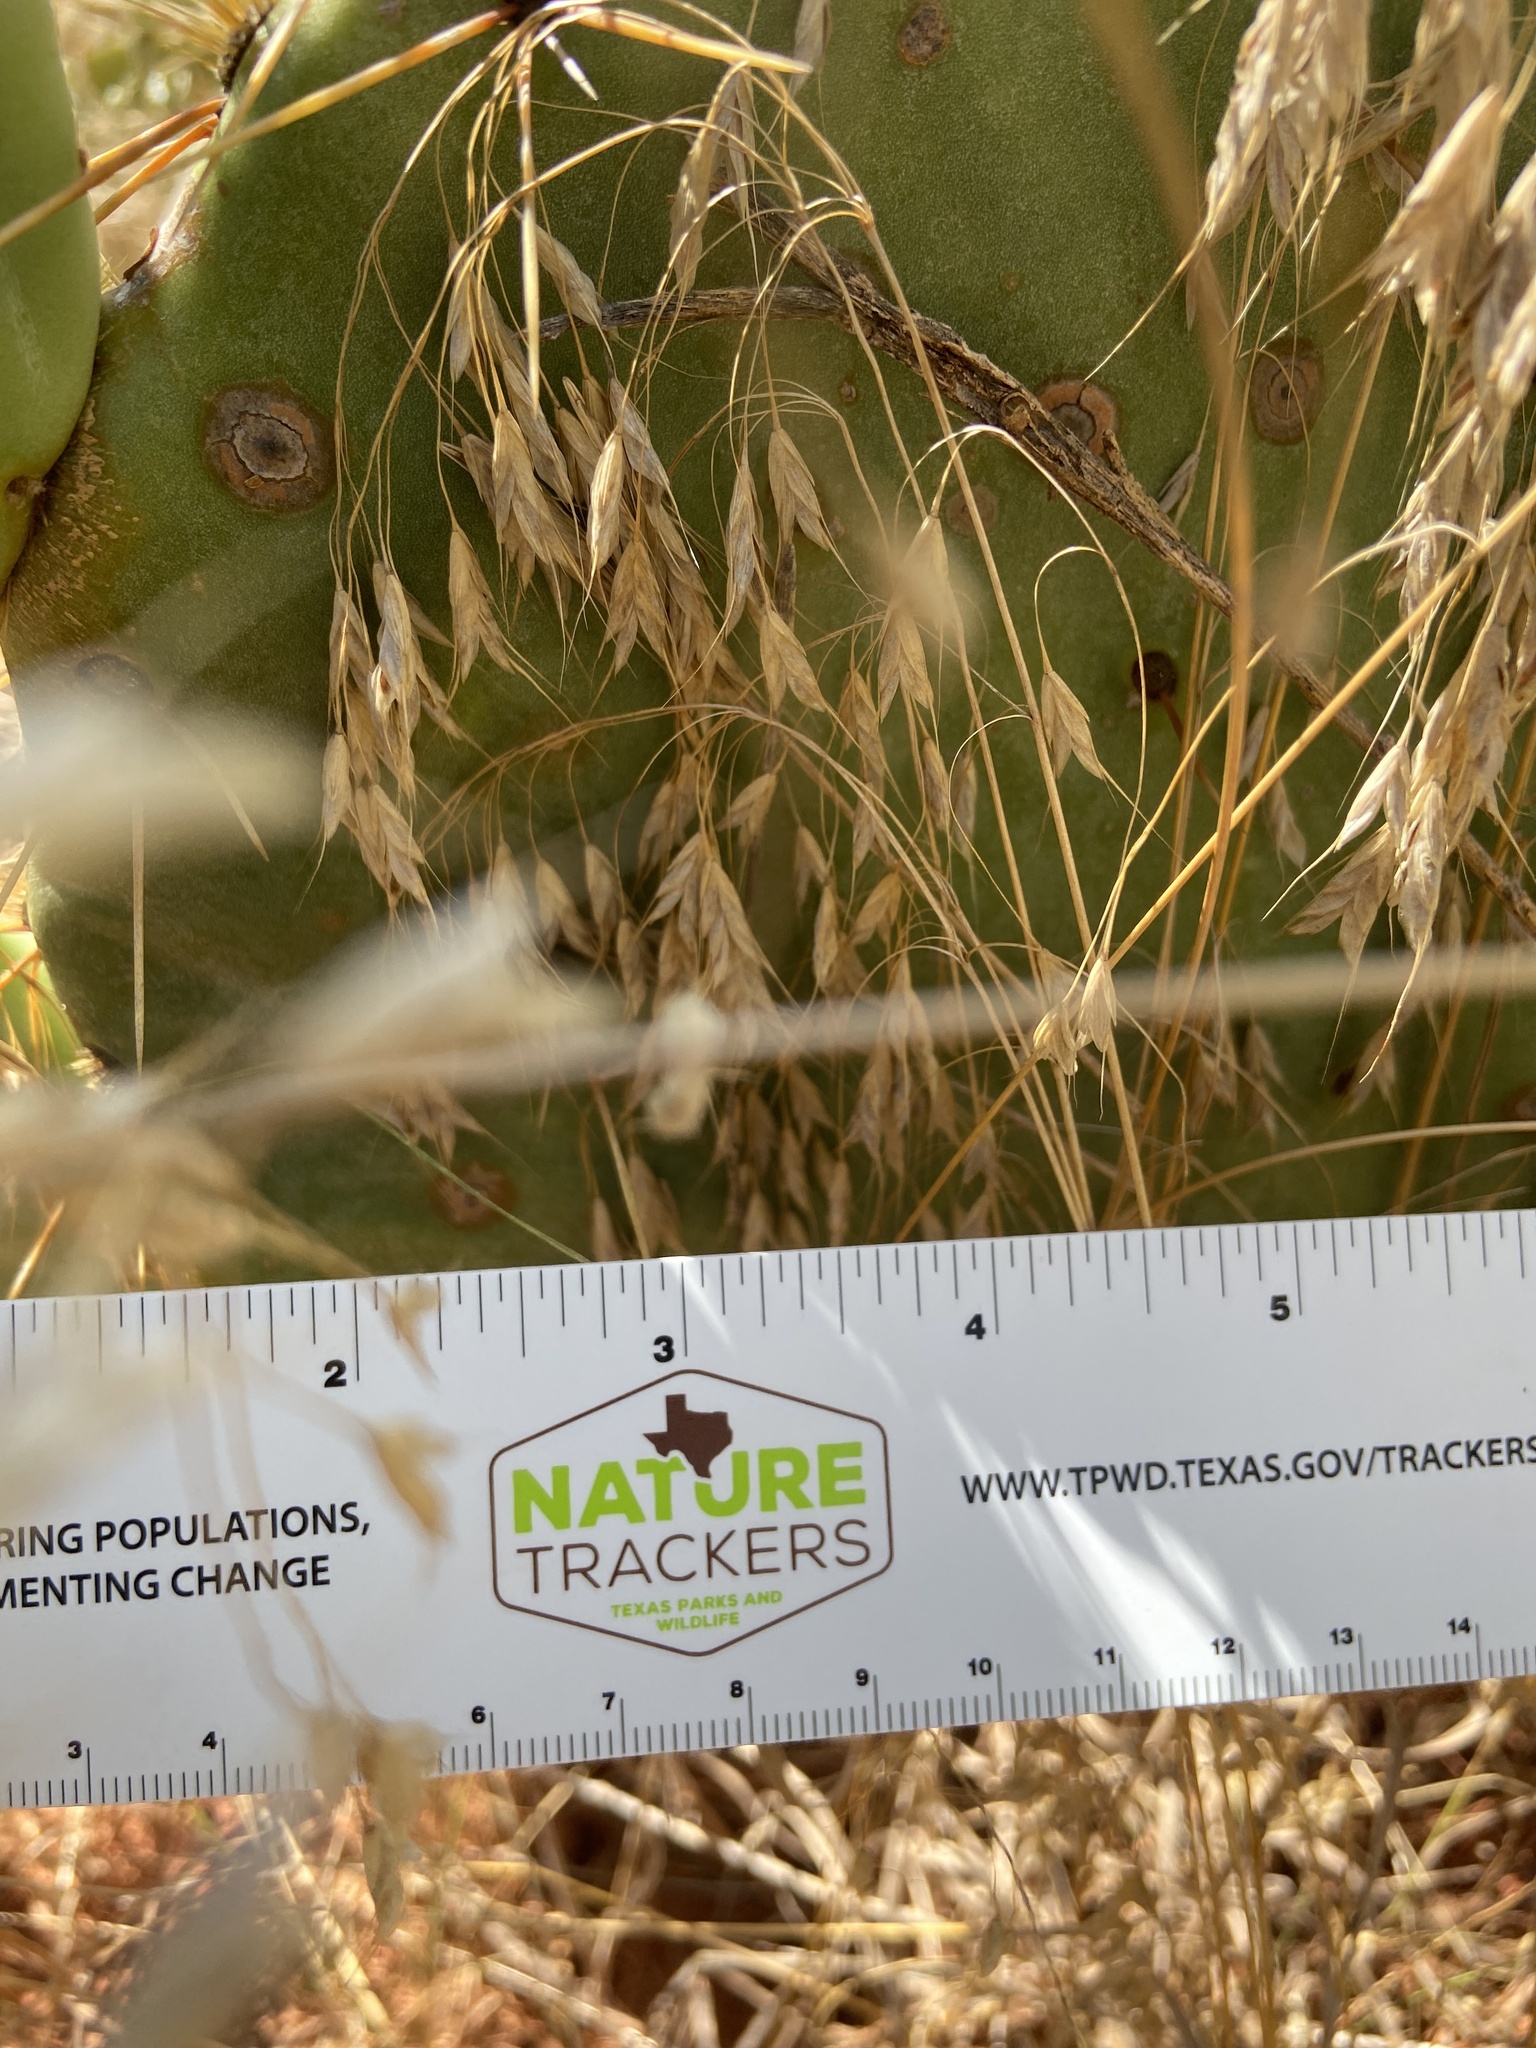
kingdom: Plantae
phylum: Tracheophyta
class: Liliopsida
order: Poales
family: Poaceae
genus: Bromus
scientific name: Bromus japonicus
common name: Japanese brome
